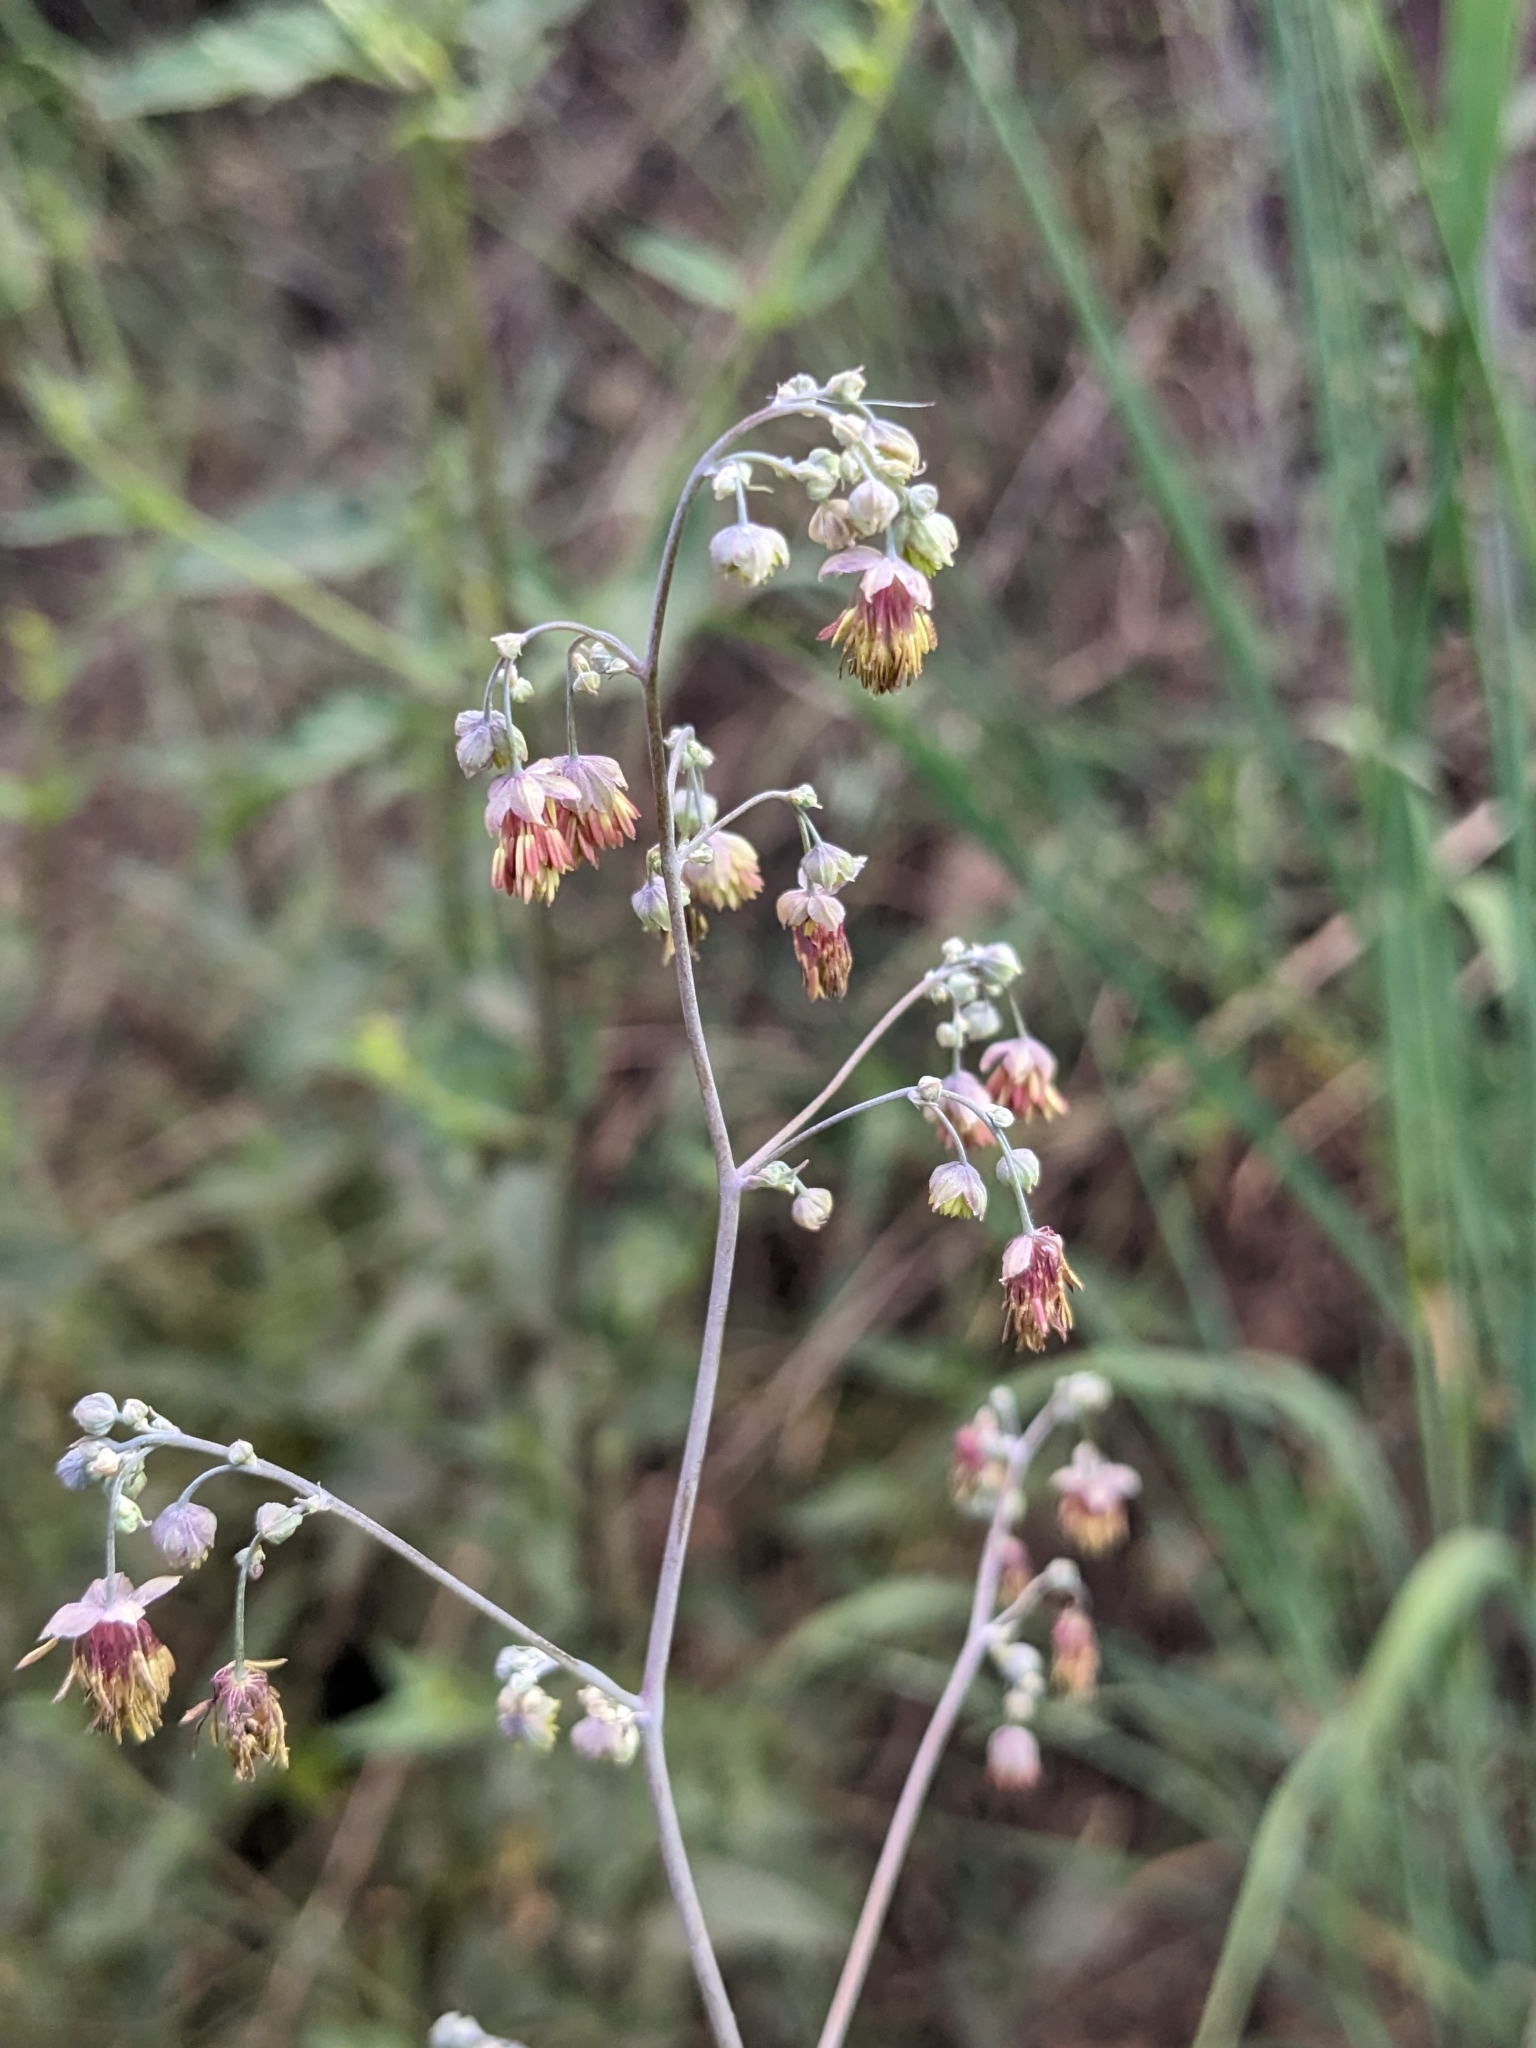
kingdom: Plantae
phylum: Tracheophyta
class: Magnoliopsida
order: Ranunculales
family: Ranunculaceae
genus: Thalictrum
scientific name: Thalictrum fendleri
